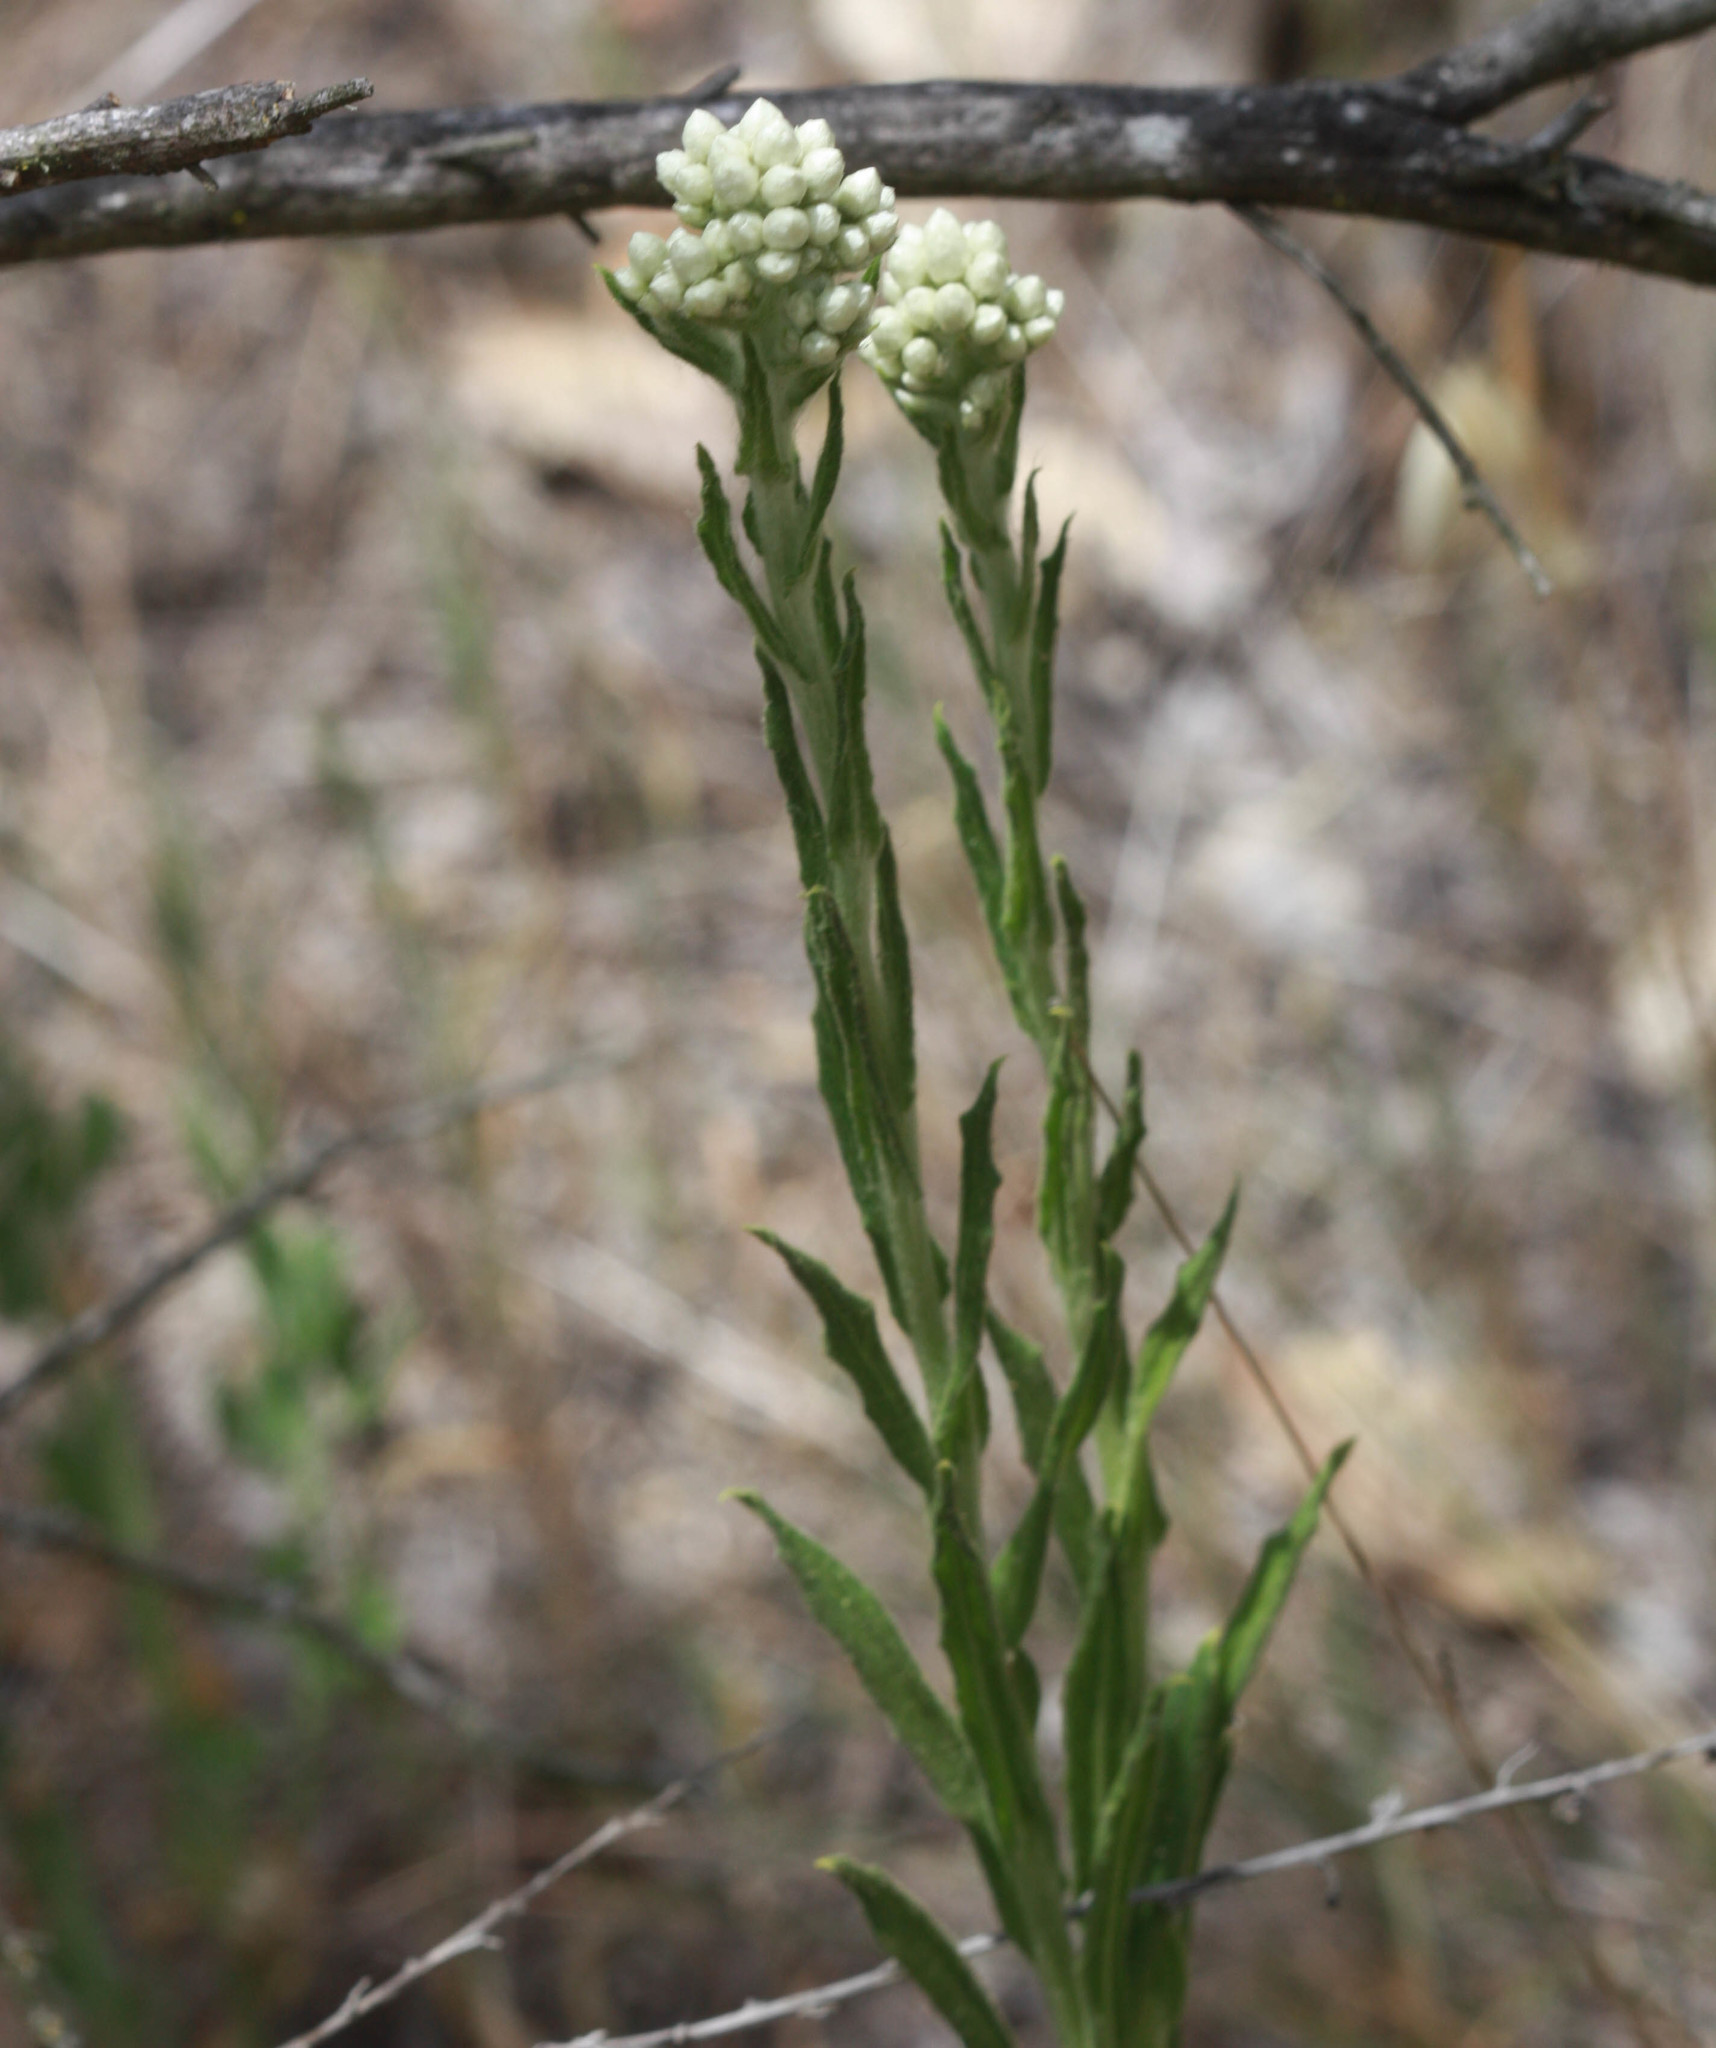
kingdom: Plantae
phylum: Tracheophyta
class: Magnoliopsida
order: Asterales
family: Asteraceae
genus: Pseudognaphalium
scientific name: Pseudognaphalium californicum
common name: California rabbit-tobacco
